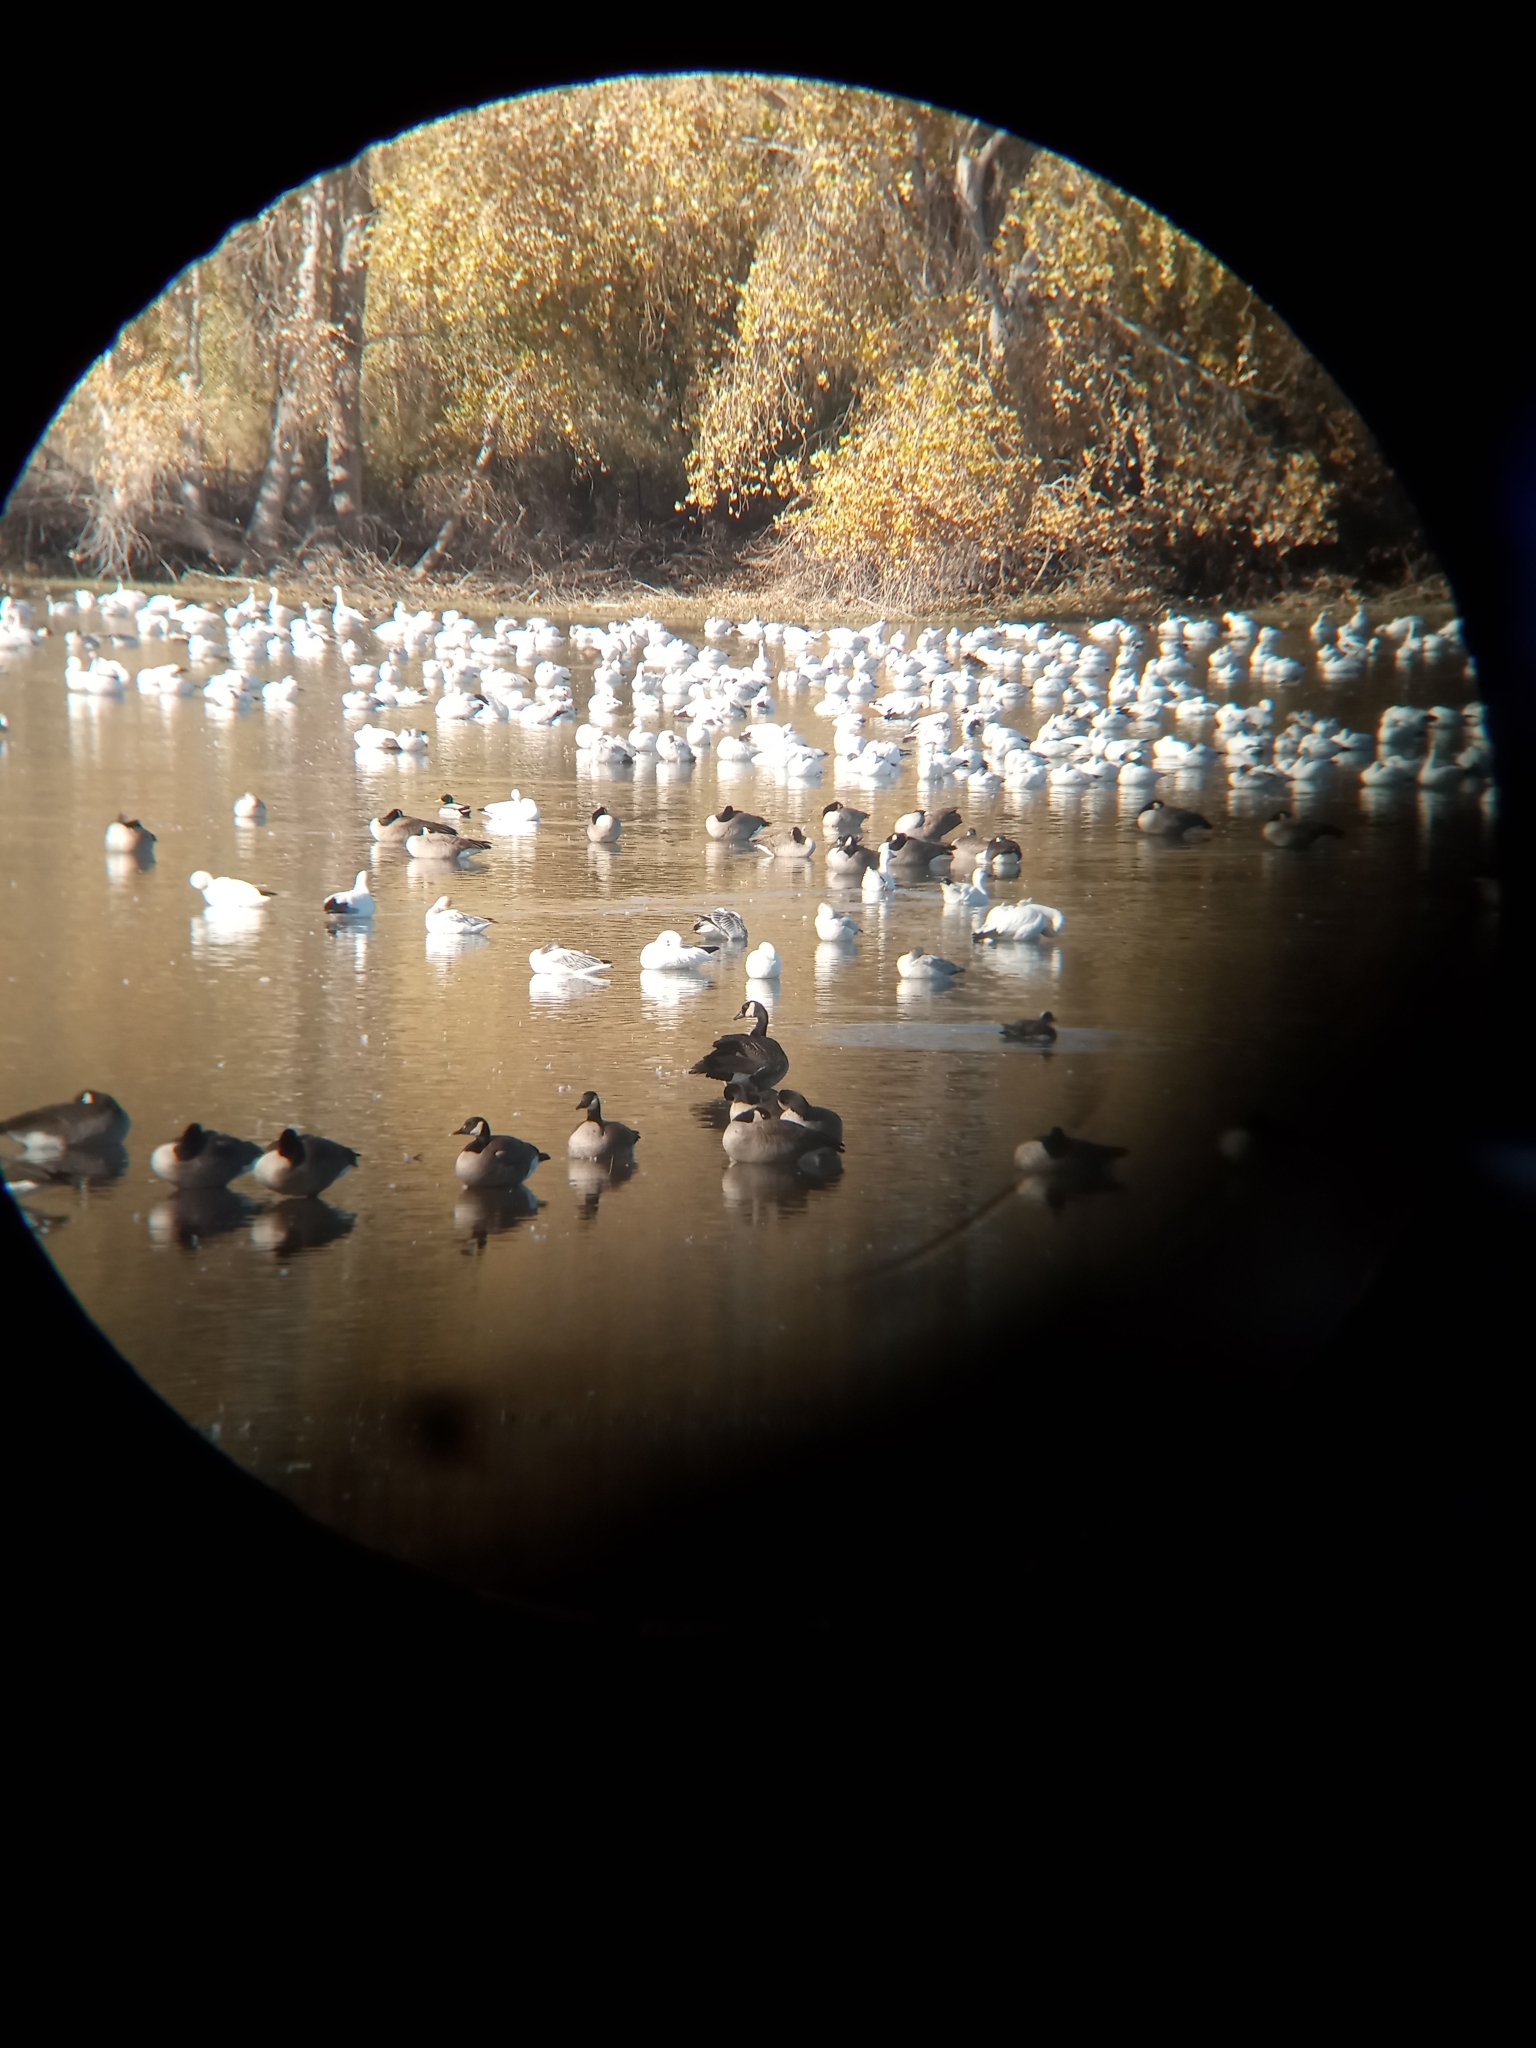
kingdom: Animalia
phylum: Chordata
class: Aves
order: Anseriformes
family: Anatidae
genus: Anser
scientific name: Anser caerulescens
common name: Snow goose
